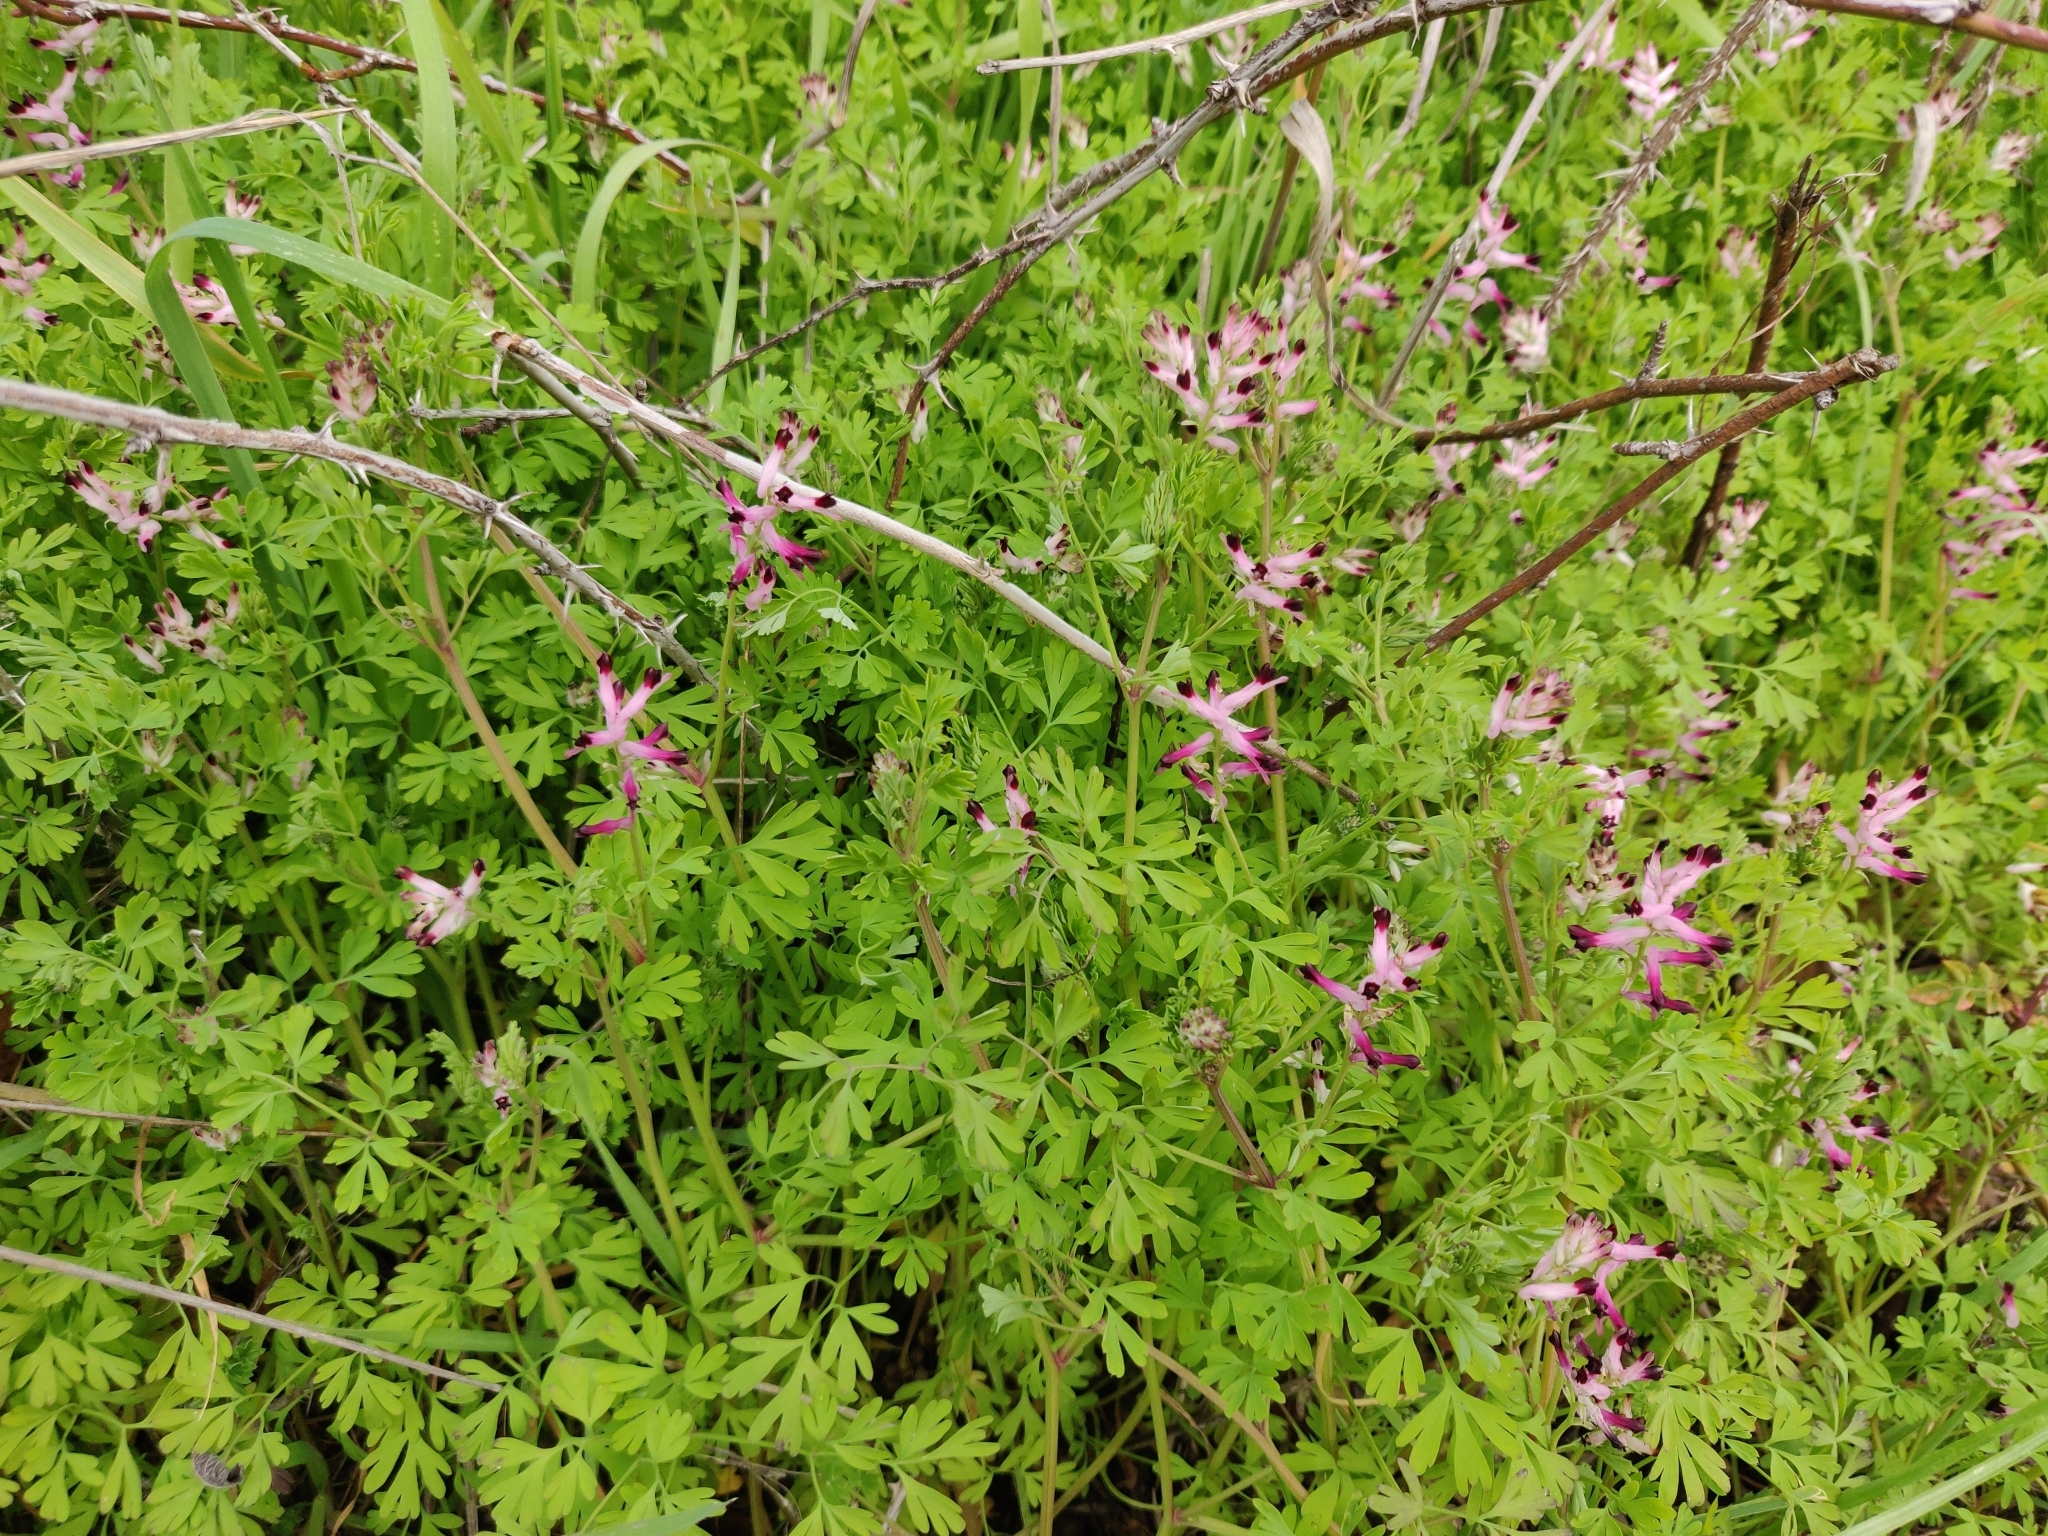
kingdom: Plantae
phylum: Tracheophyta
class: Magnoliopsida
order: Ranunculales
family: Papaveraceae
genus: Fumaria
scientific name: Fumaria muralis
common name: Common ramping-fumitory
